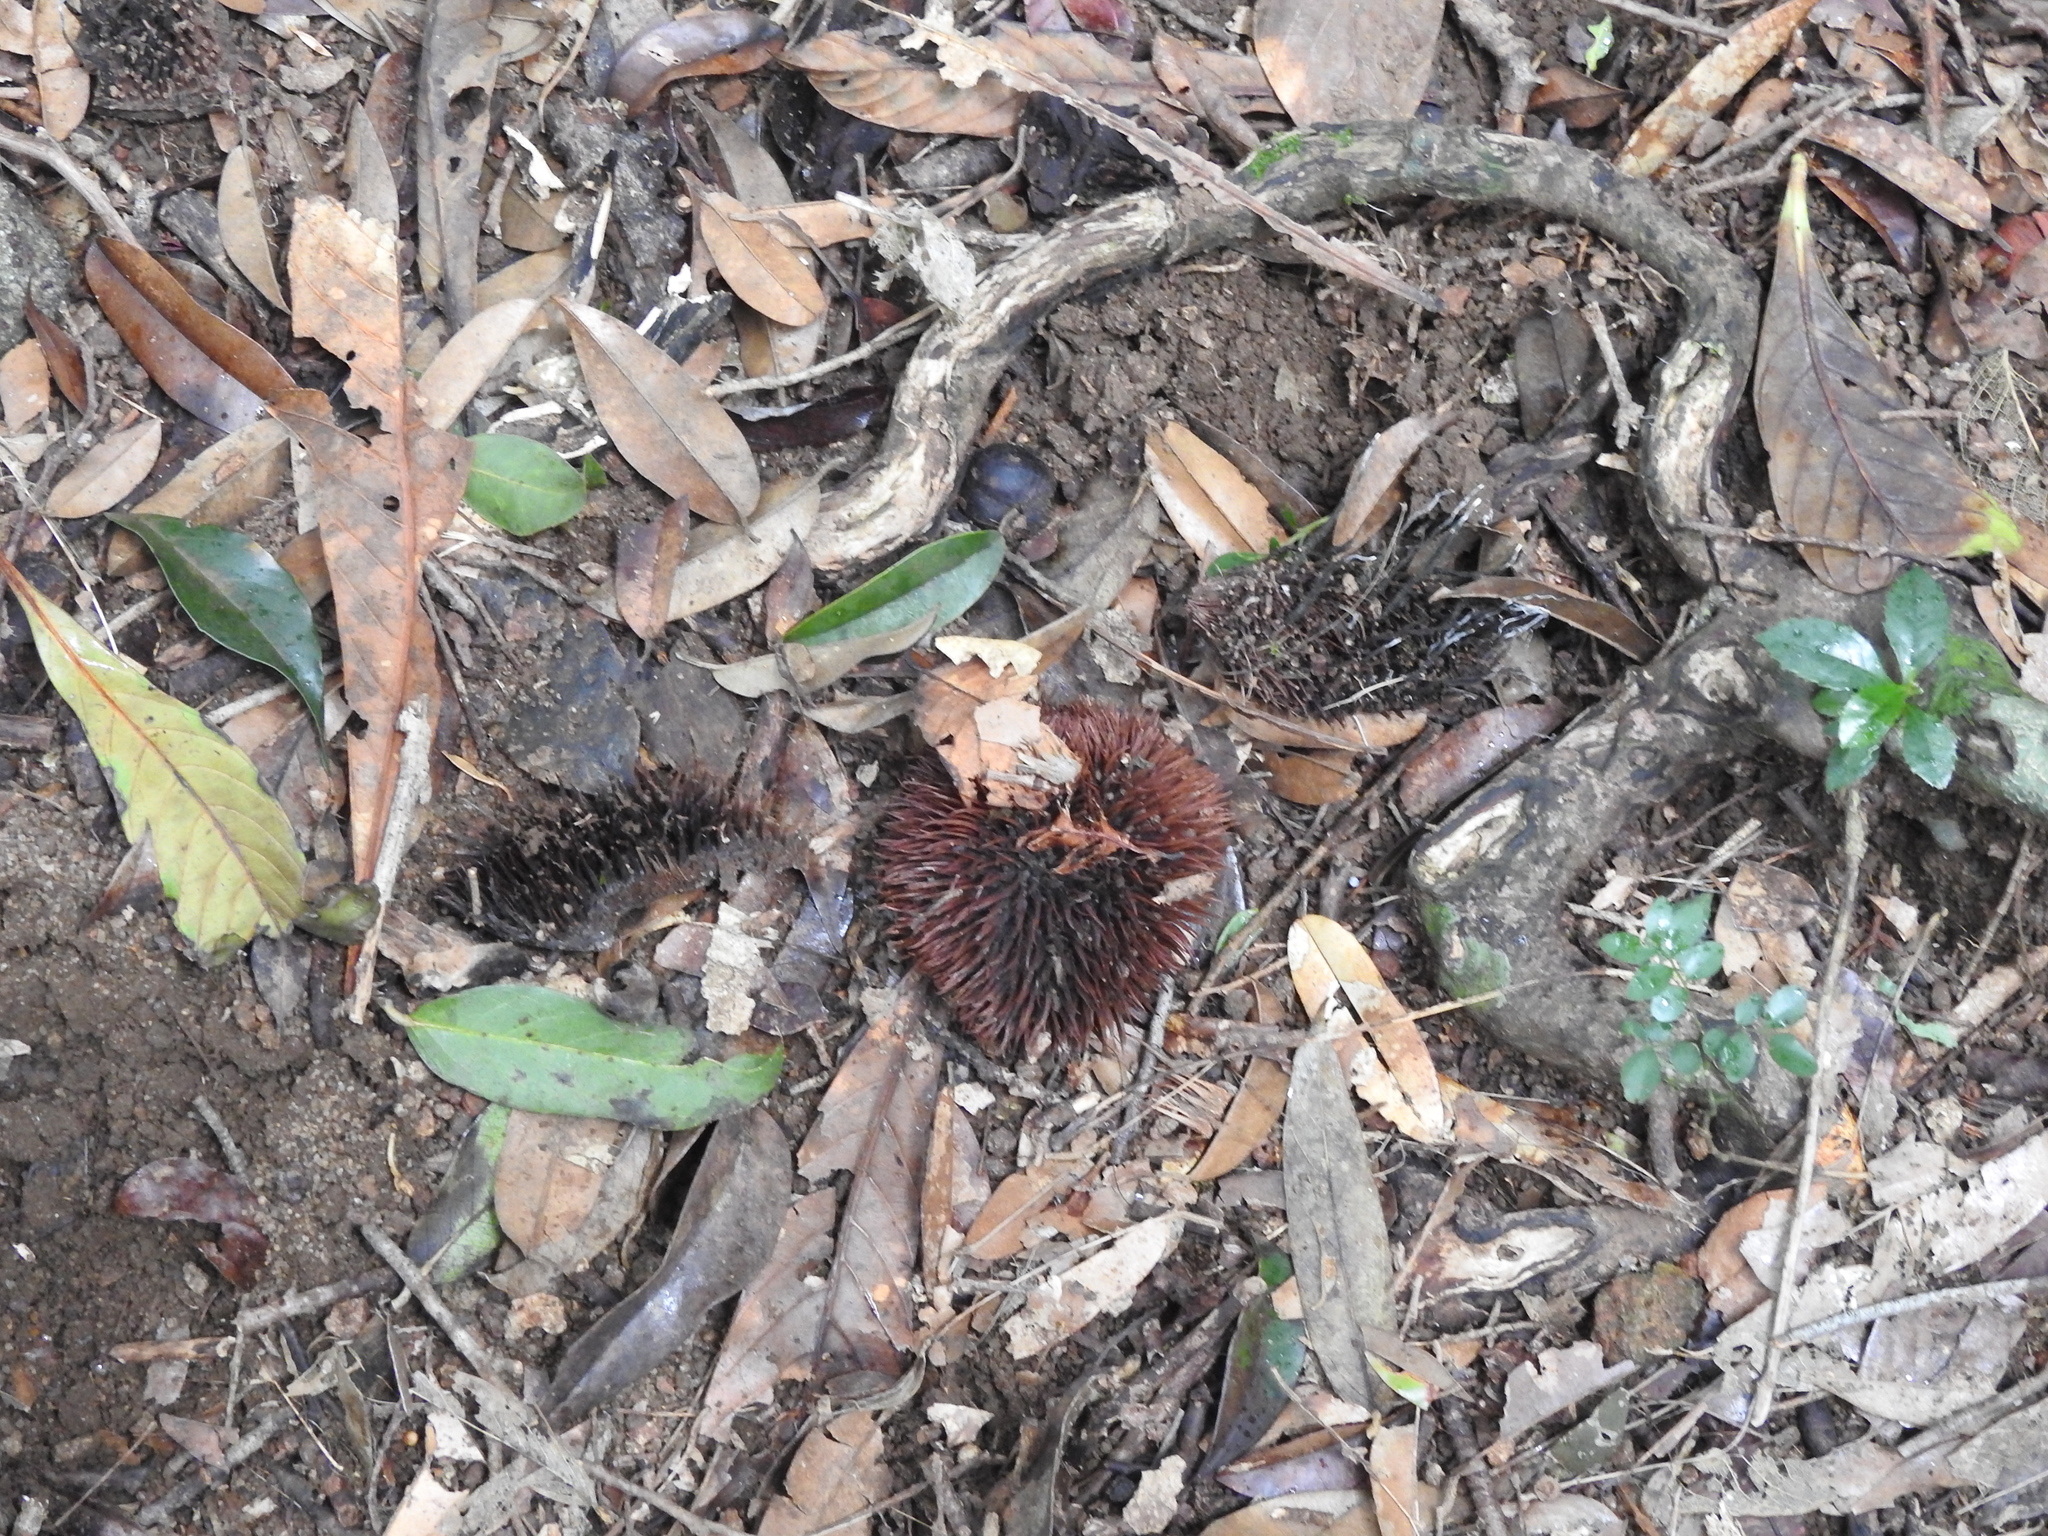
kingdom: Plantae
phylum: Tracheophyta
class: Magnoliopsida
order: Malvales
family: Malvaceae
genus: Cullenia
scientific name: Cullenia exarillata
